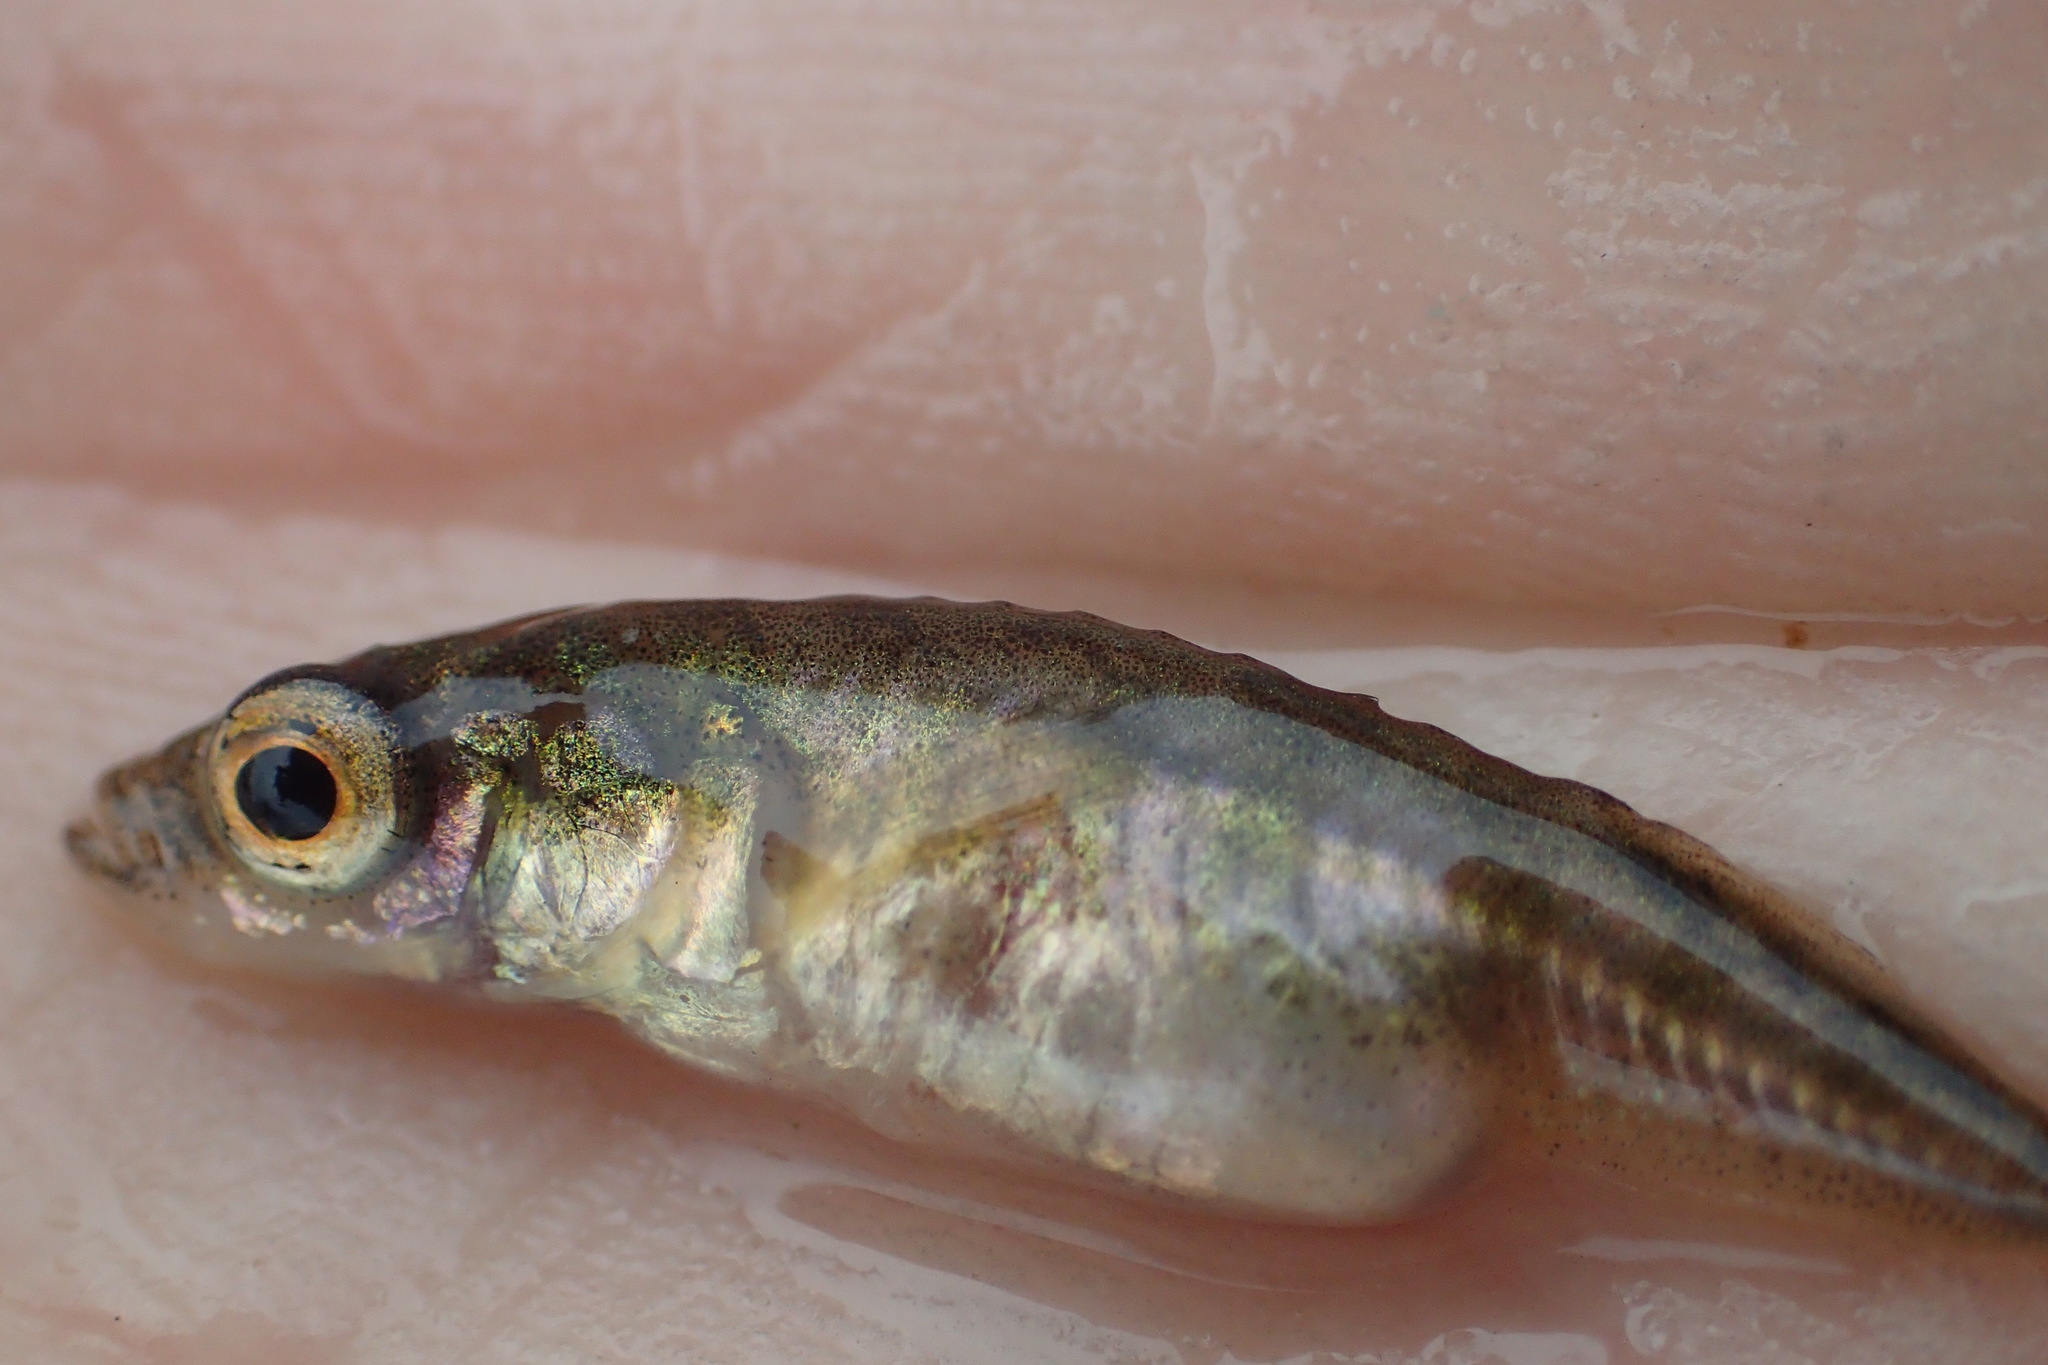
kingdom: Animalia
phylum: Chordata
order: Gasterosteiformes
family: Gasterosteidae
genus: Pungitius
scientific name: Pungitius pungitius
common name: Nine-spined stickleback
